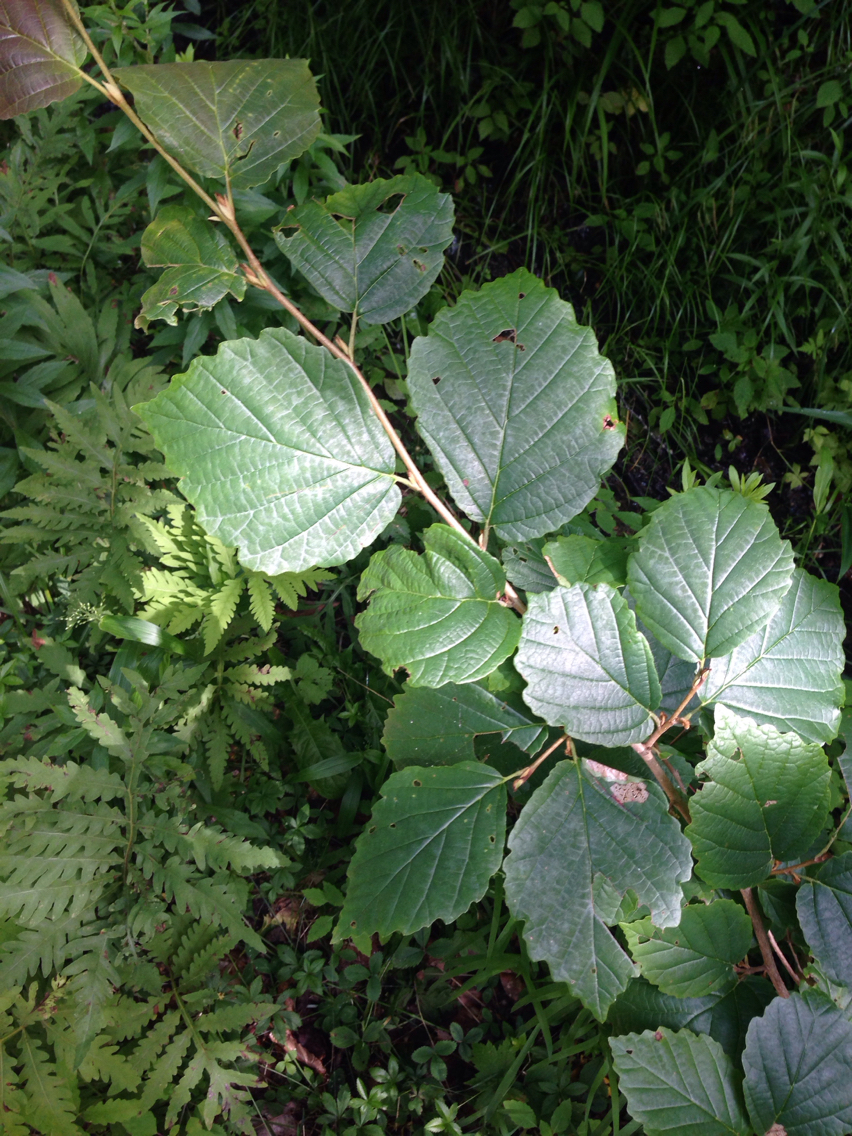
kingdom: Plantae
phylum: Tracheophyta
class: Magnoliopsida
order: Saxifragales
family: Hamamelidaceae
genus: Hamamelis
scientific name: Hamamelis virginiana
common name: Witch-hazel
